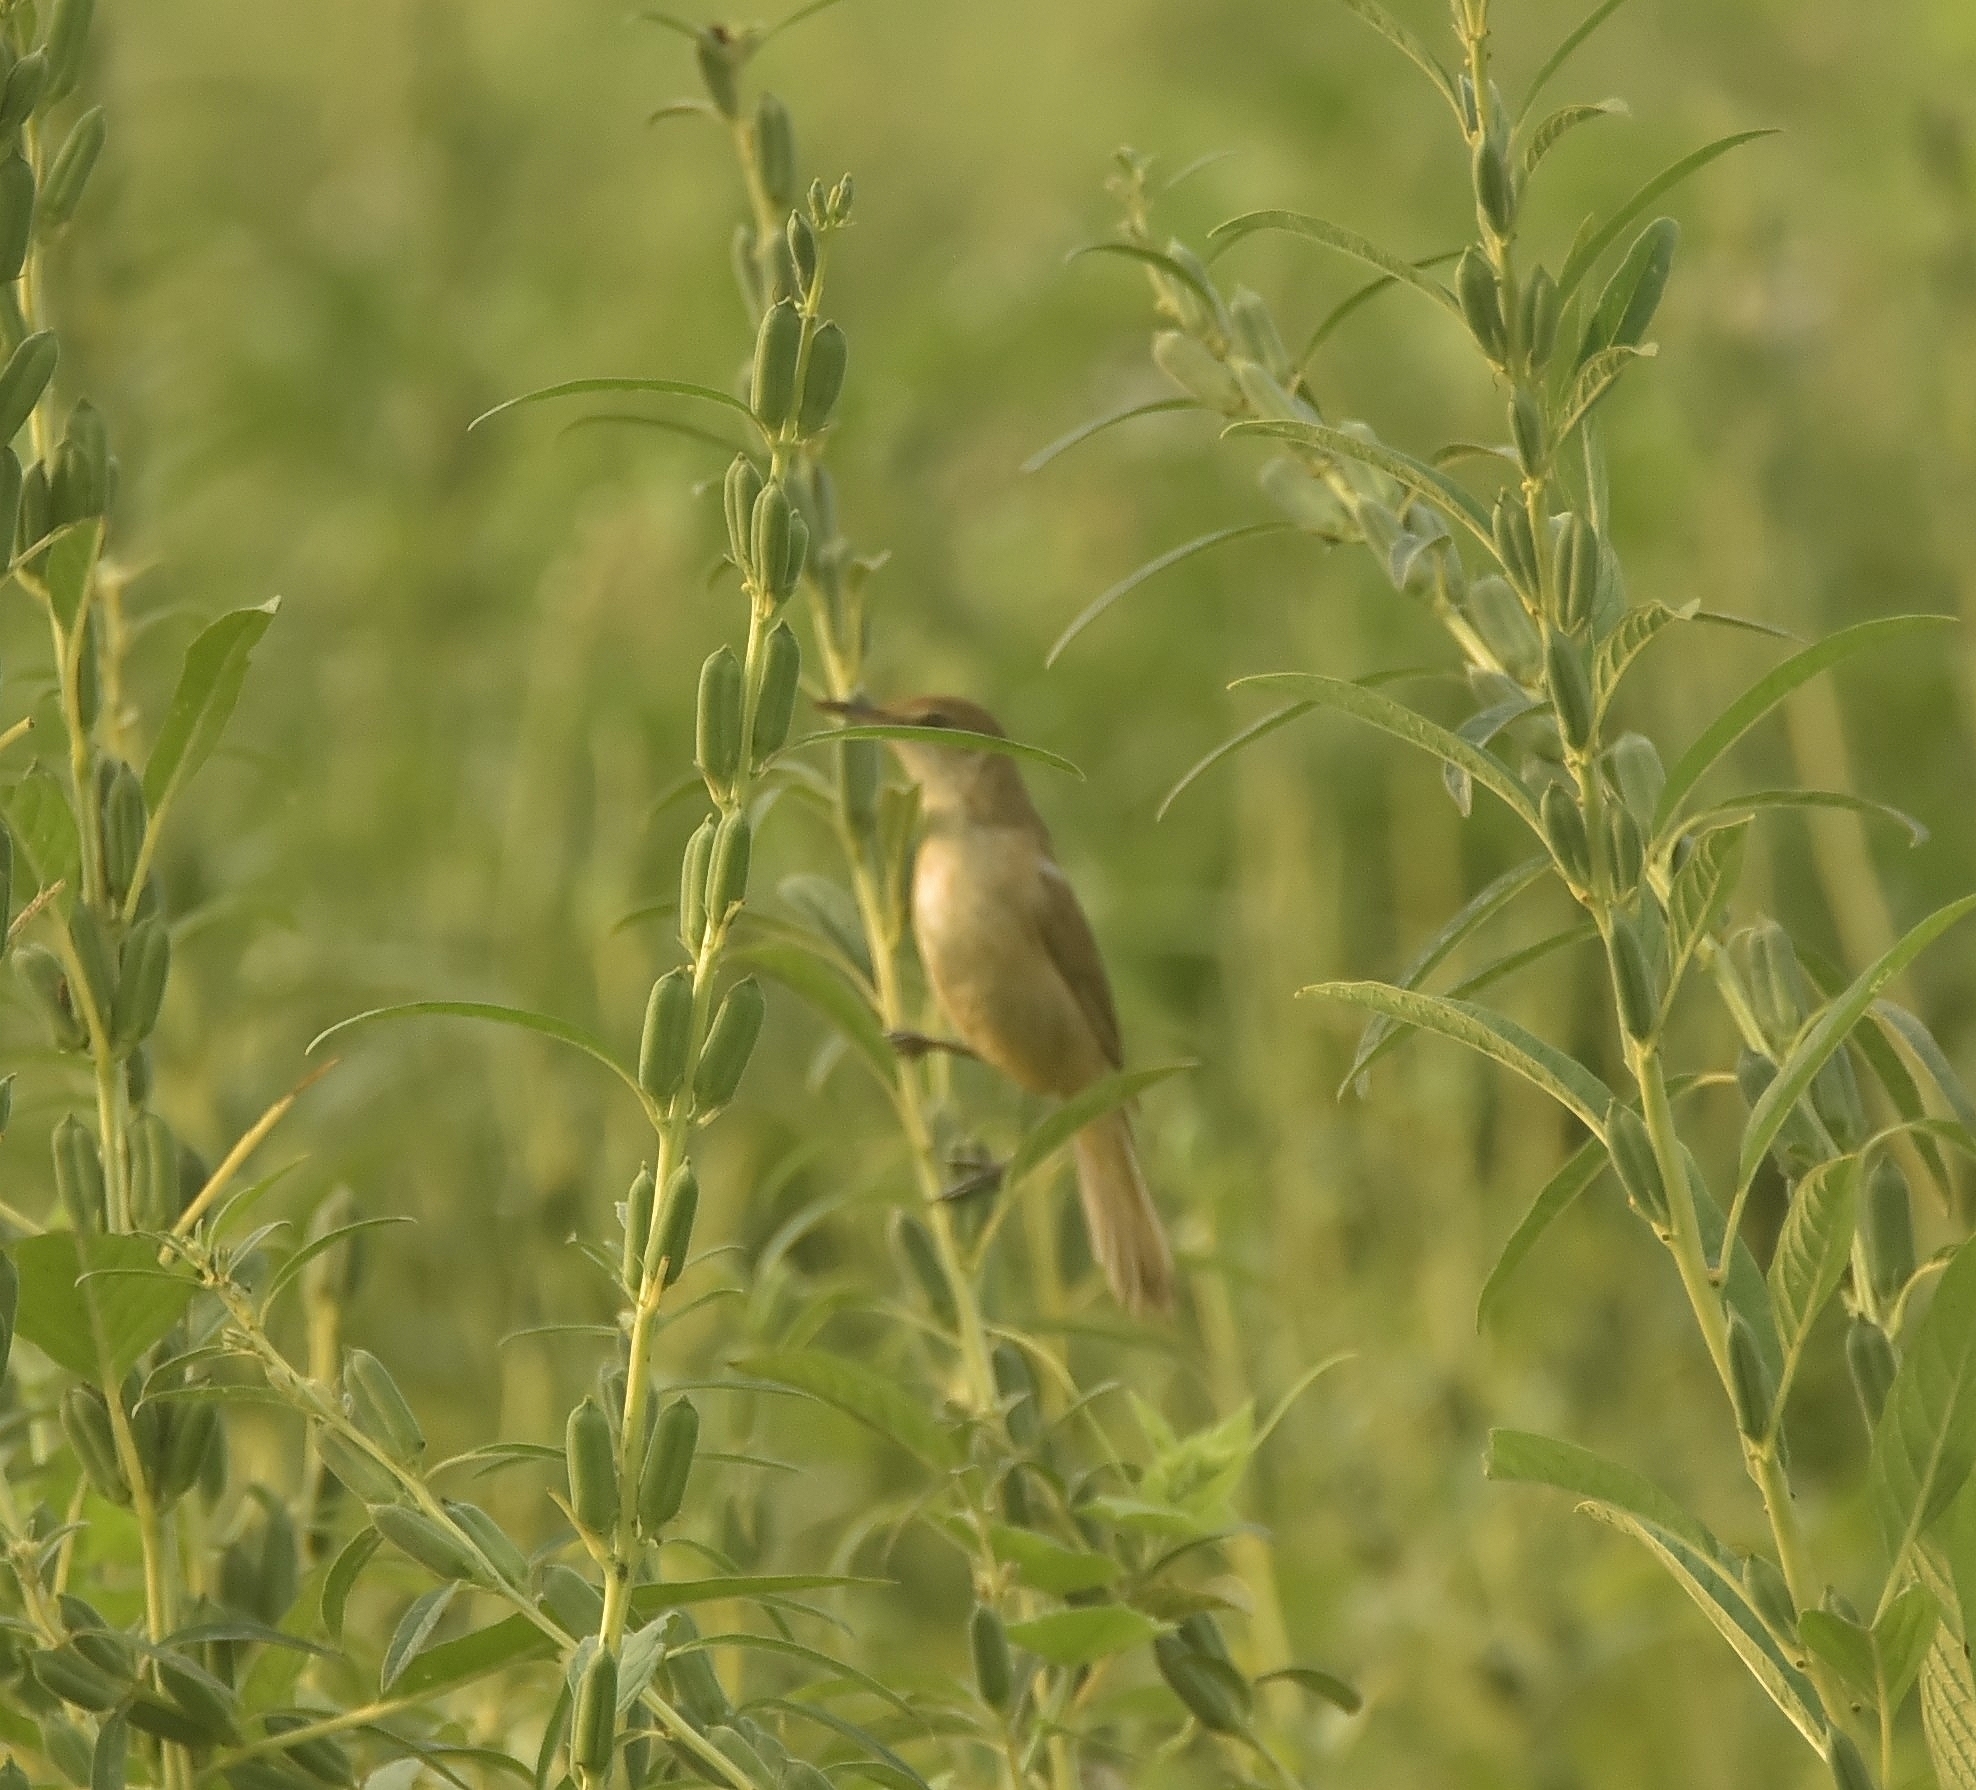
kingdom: Animalia
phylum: Chordata
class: Aves
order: Passeriformes
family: Acrocephalidae
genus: Acrocephalus
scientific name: Acrocephalus stentoreus
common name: Clamorous reed warbler
